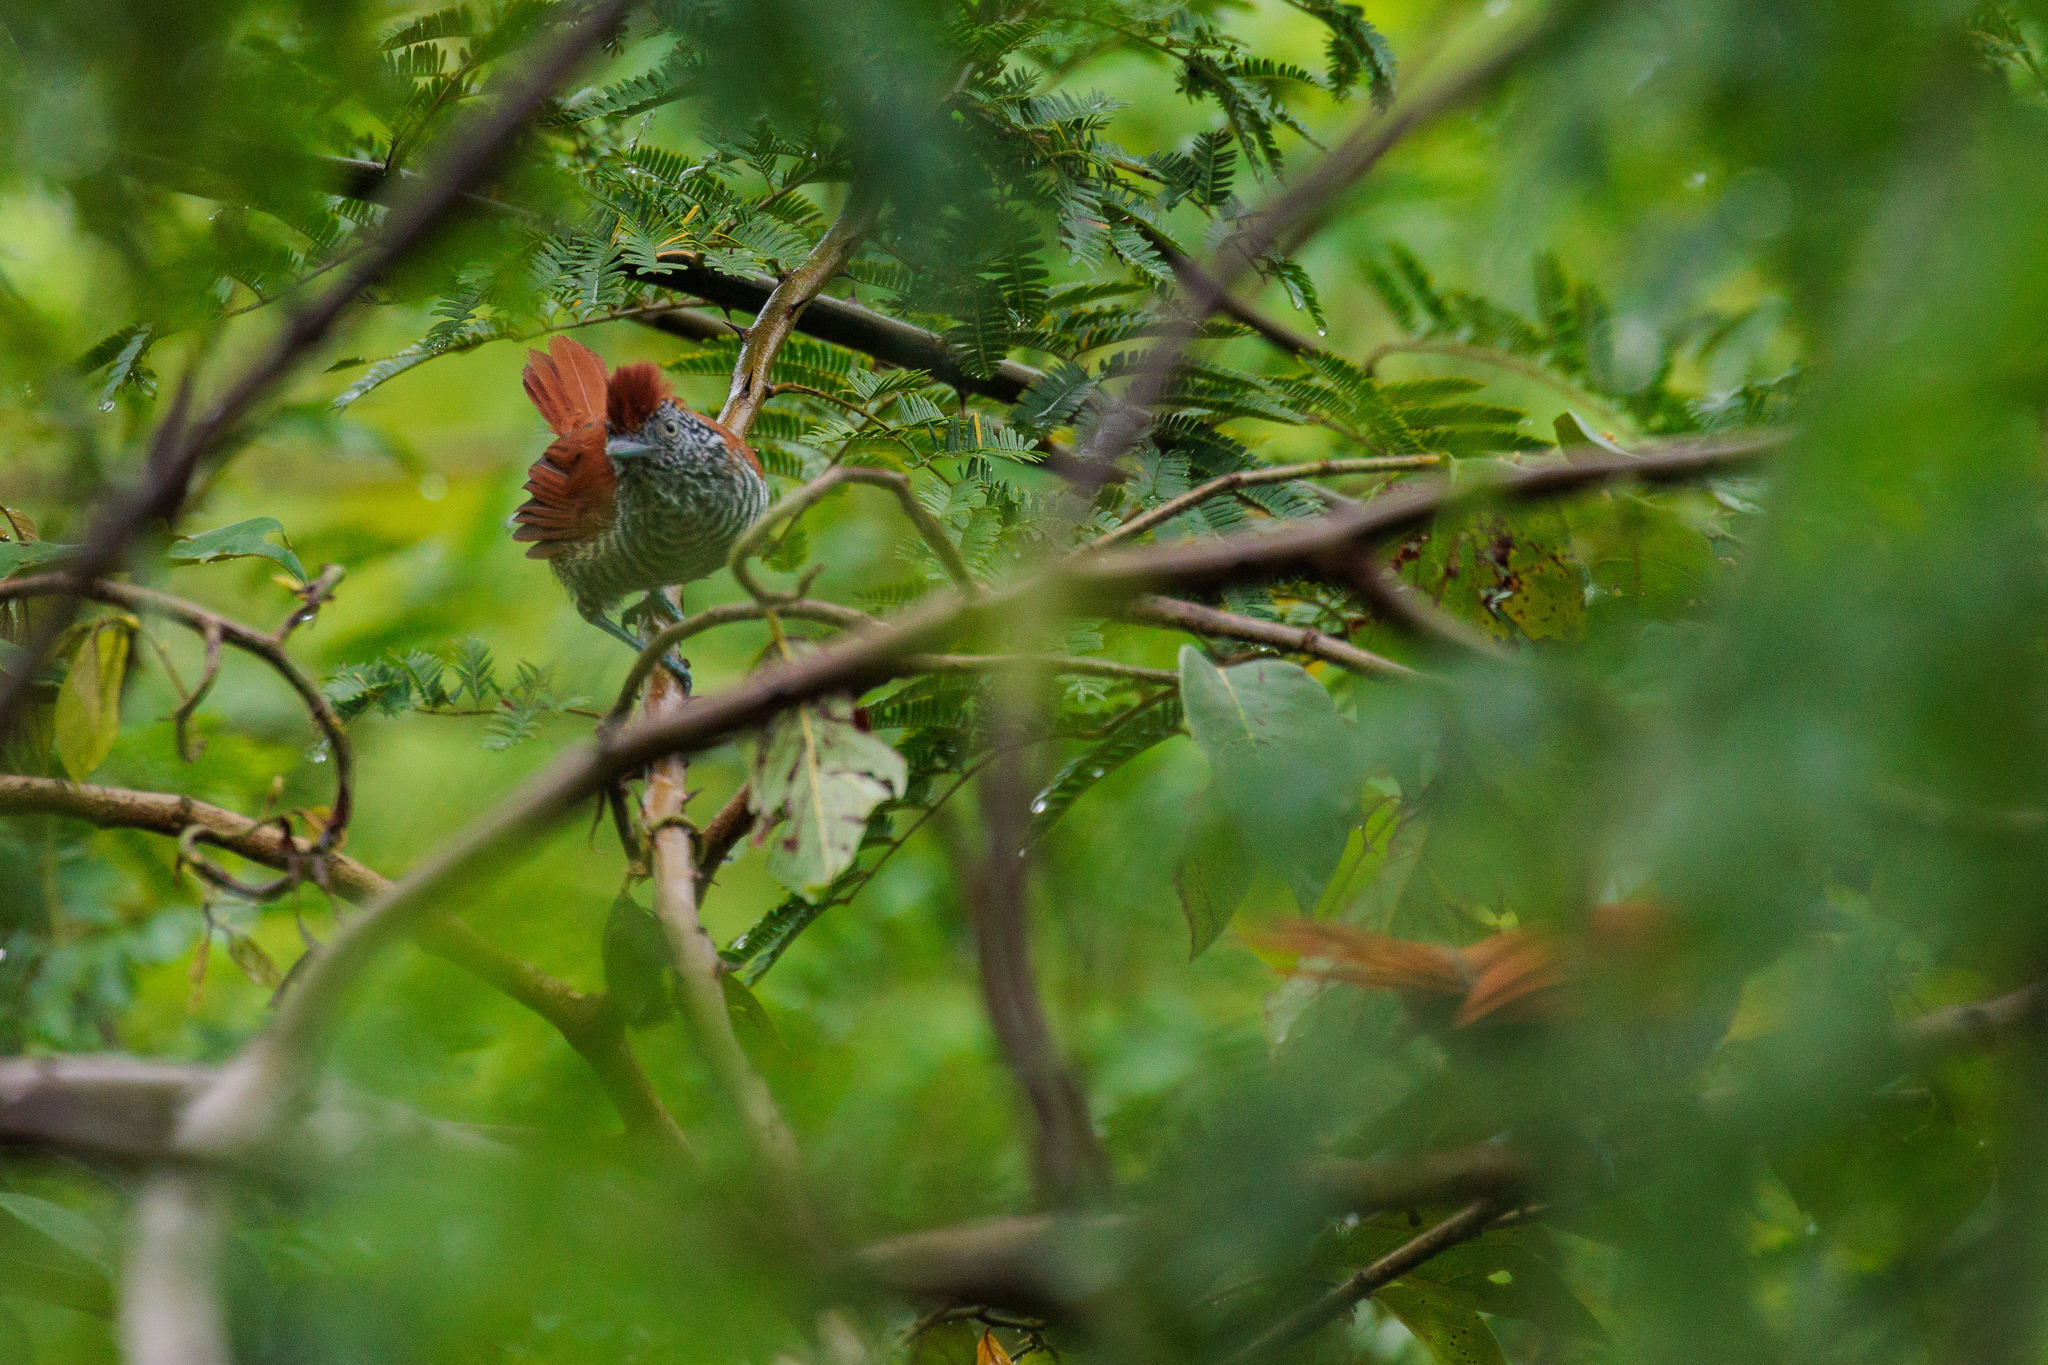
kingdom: Animalia
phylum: Chordata
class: Aves
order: Passeriformes
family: Thamnophilidae
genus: Thamnophilus
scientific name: Thamnophilus palliatus
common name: Chestnut-backed antshrike
